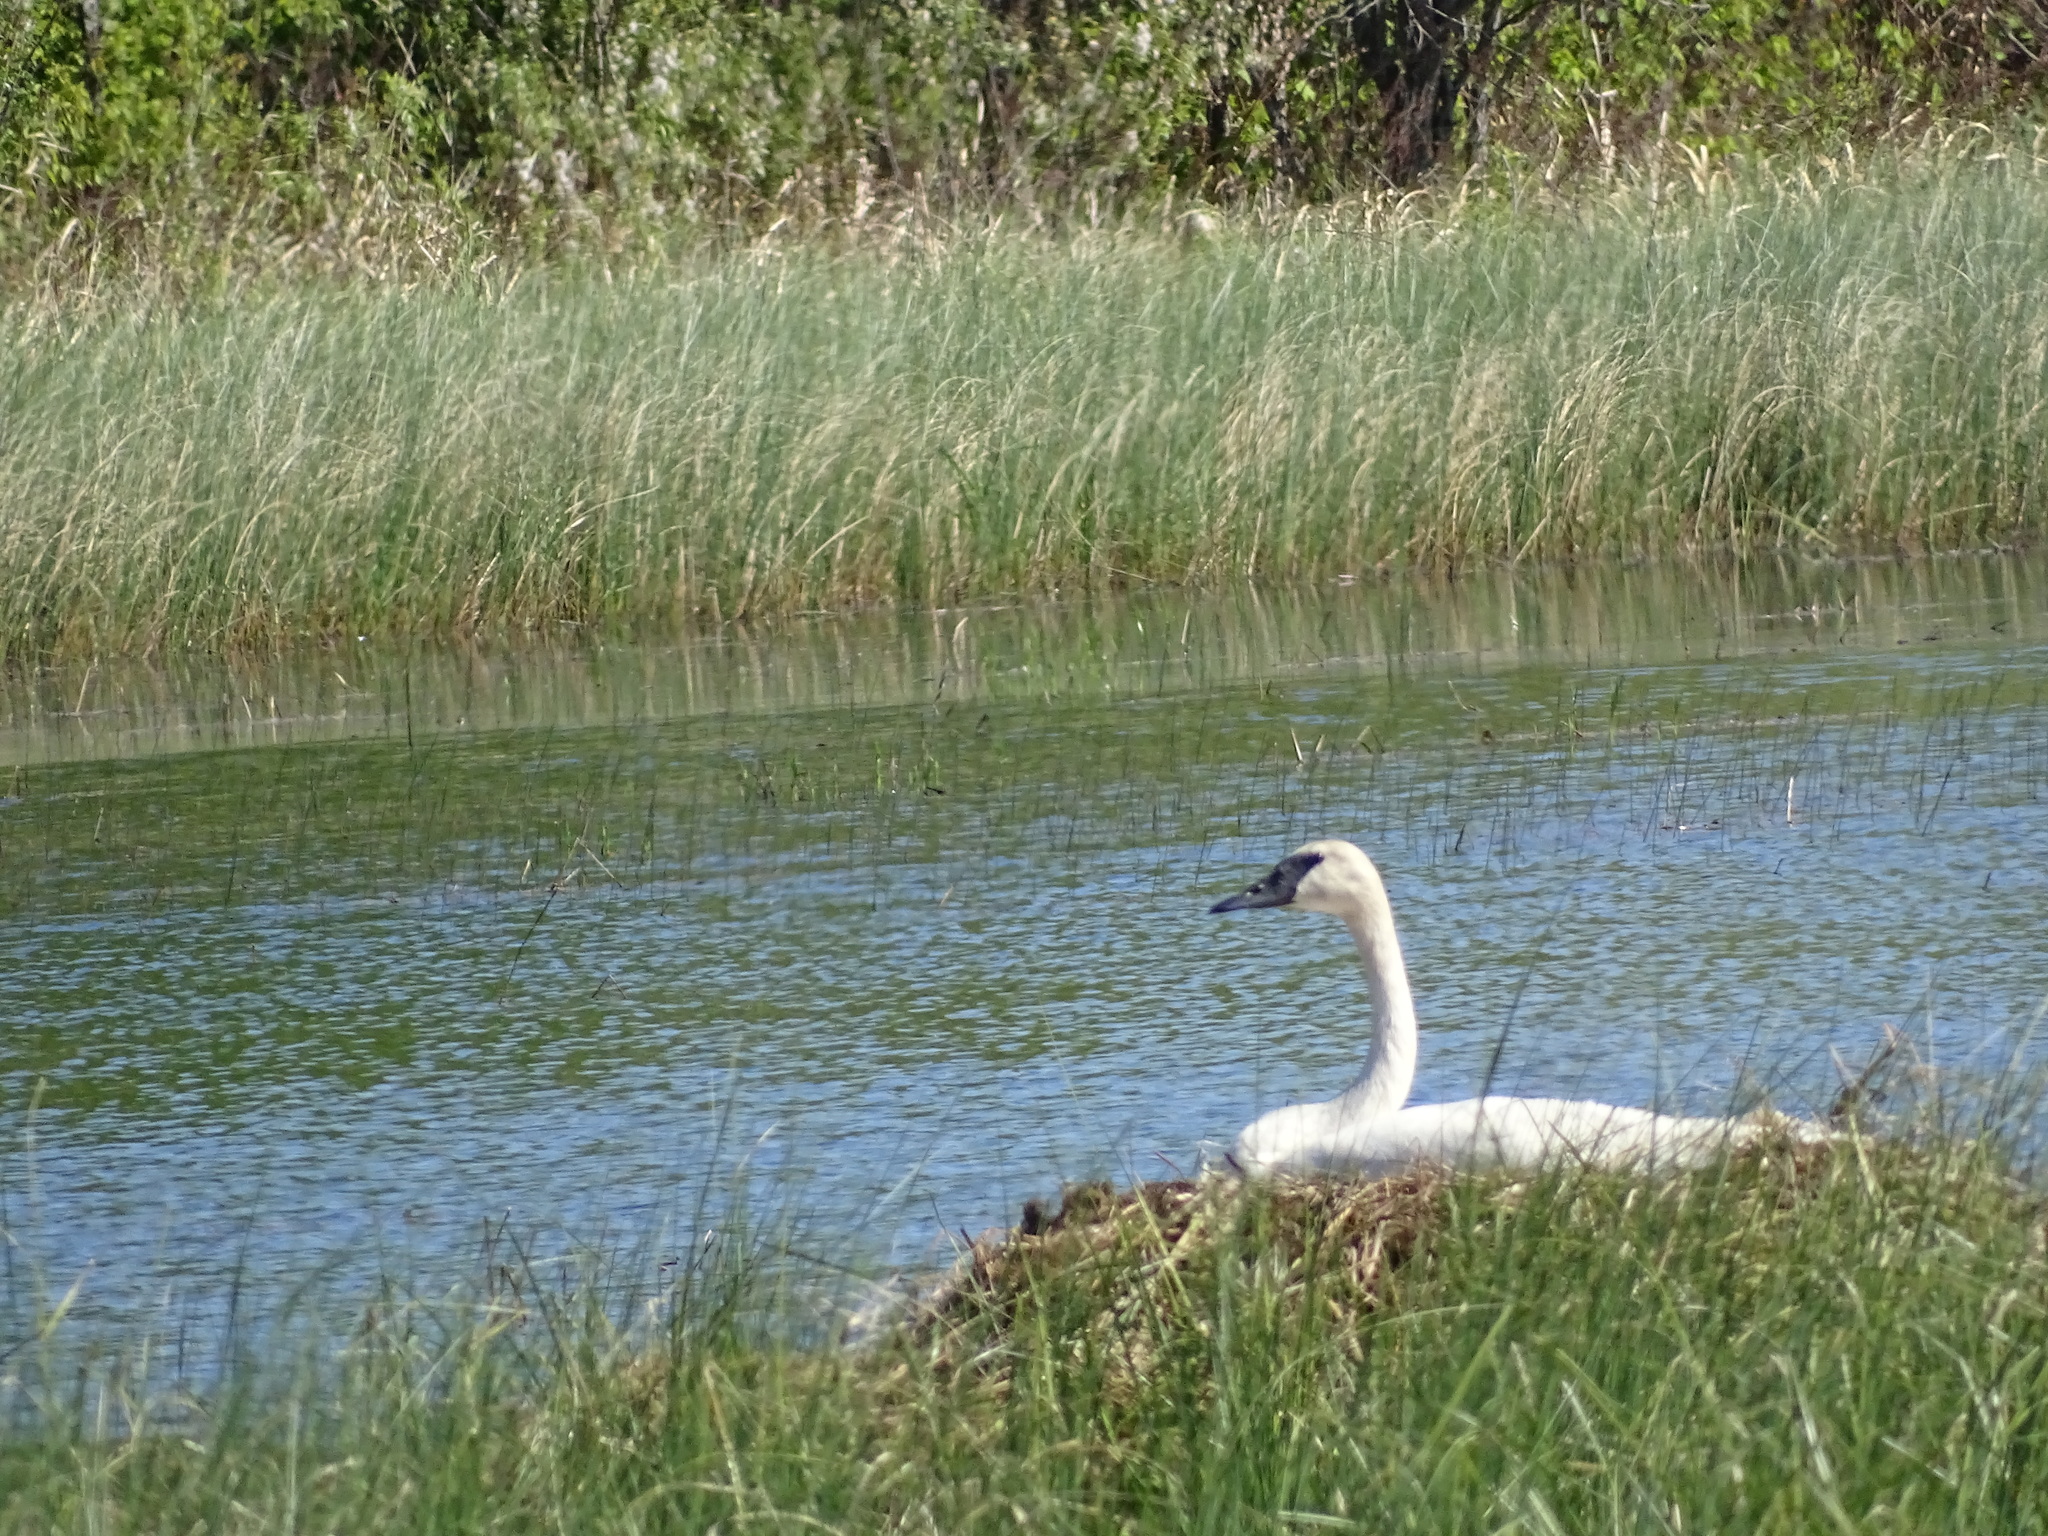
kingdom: Animalia
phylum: Chordata
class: Aves
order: Anseriformes
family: Anatidae
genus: Cygnus
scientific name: Cygnus buccinator
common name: Trumpeter swan
